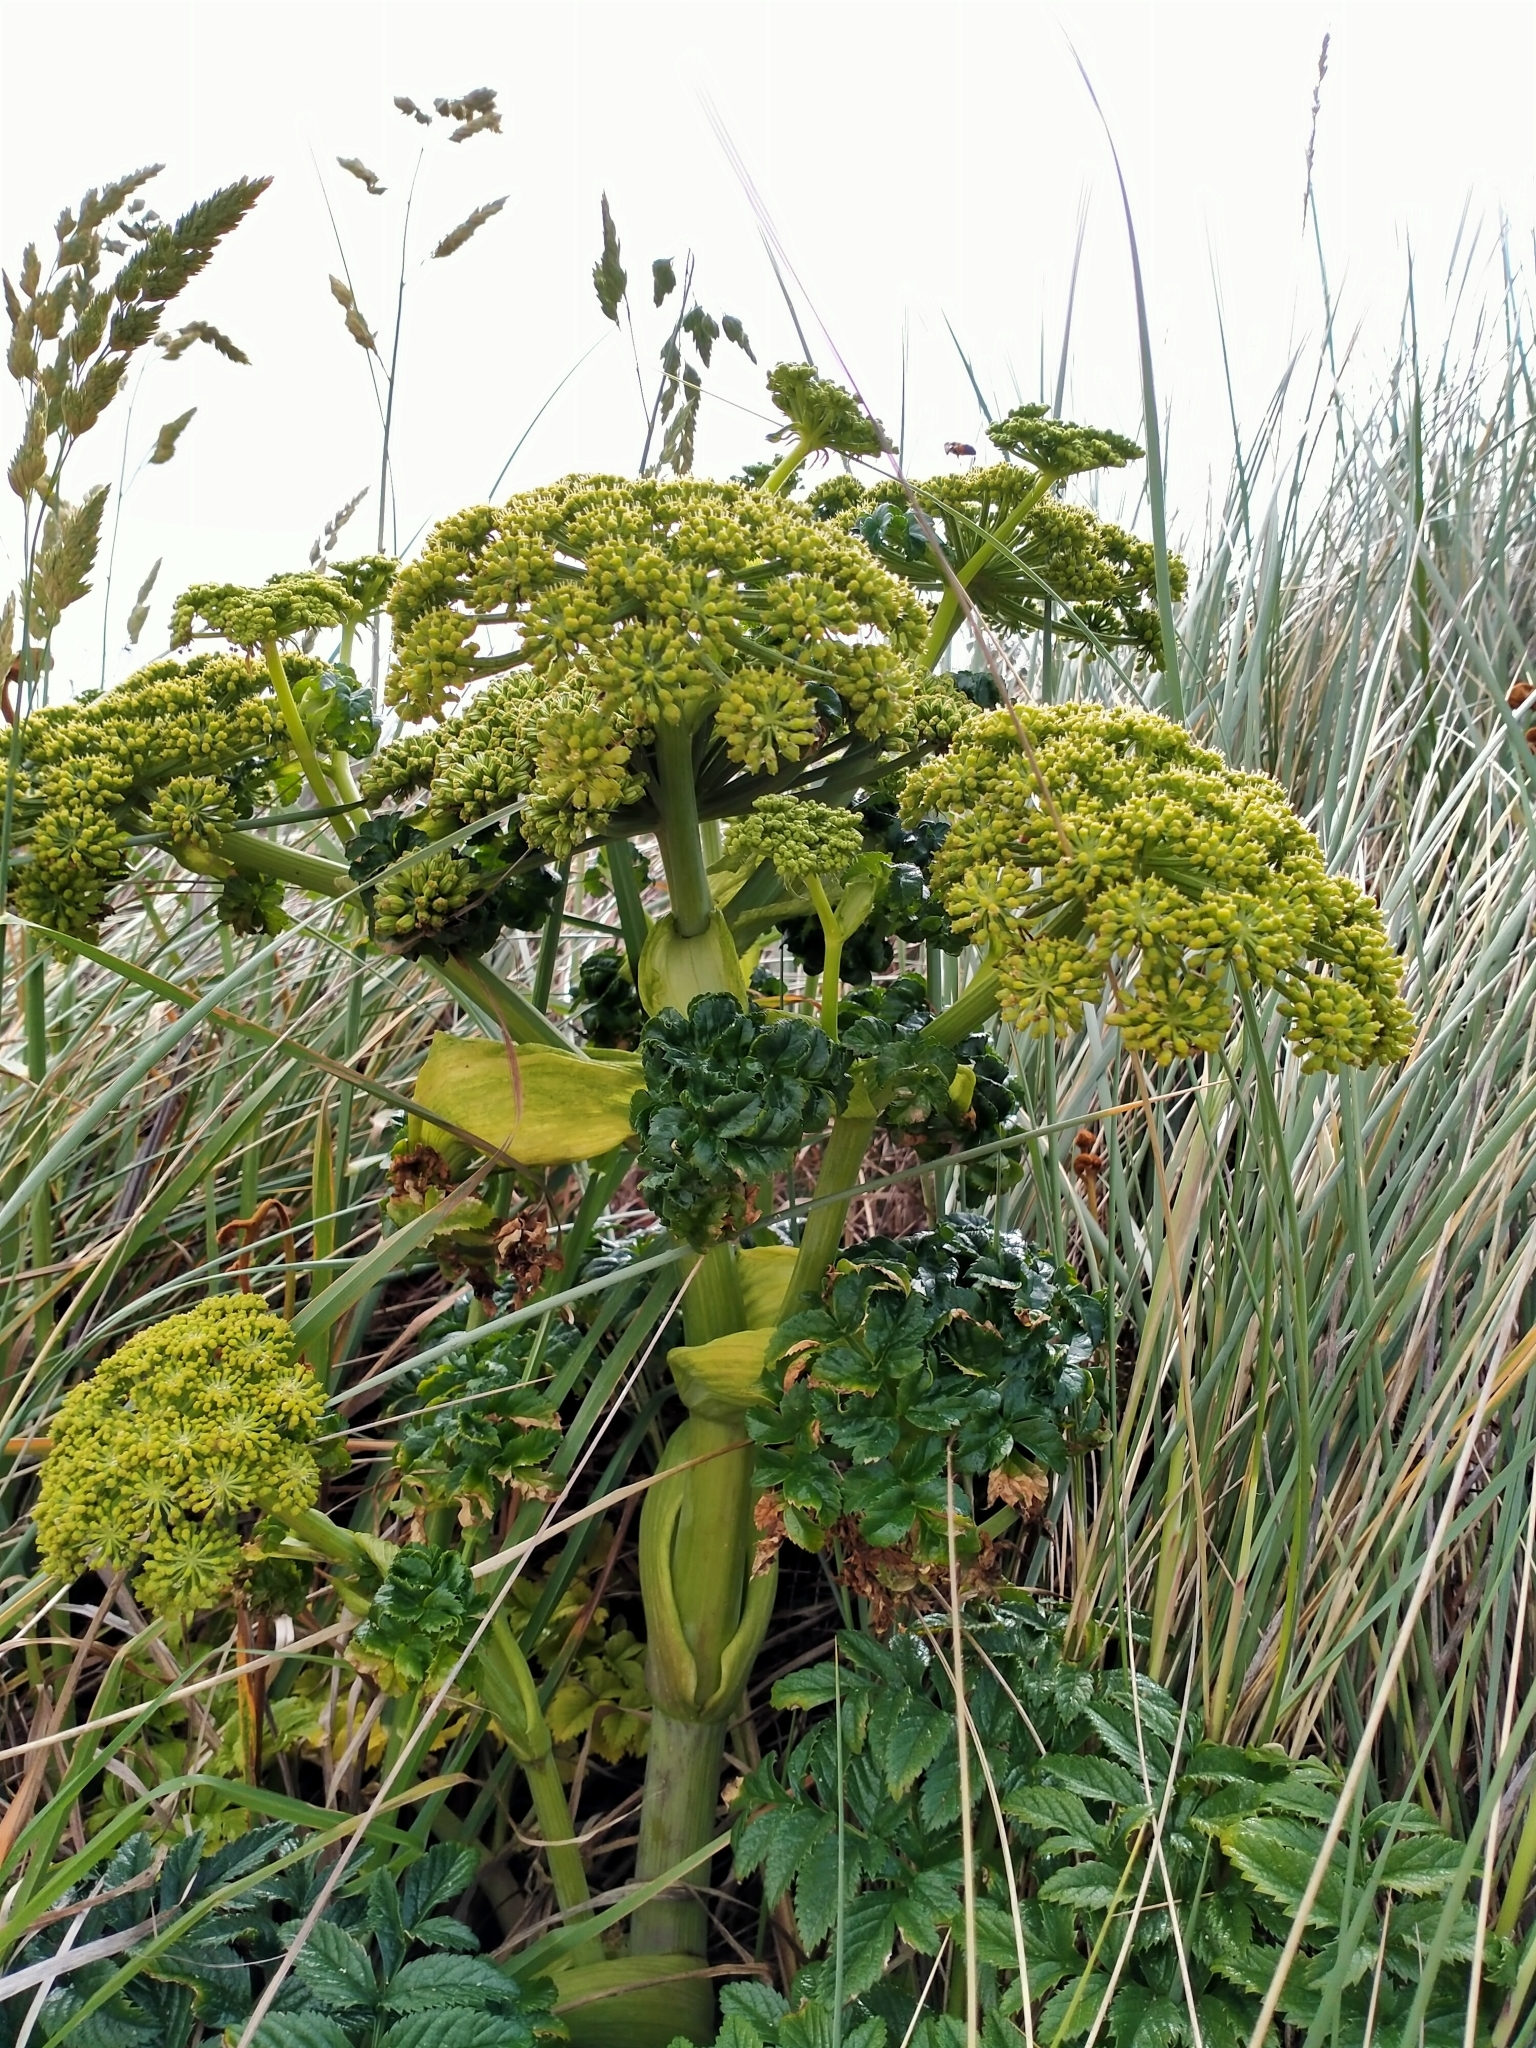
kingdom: Plantae
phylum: Tracheophyta
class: Magnoliopsida
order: Apiales
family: Apiaceae
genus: Angelica
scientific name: Angelica pachycarpa
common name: Portuguese angelica
